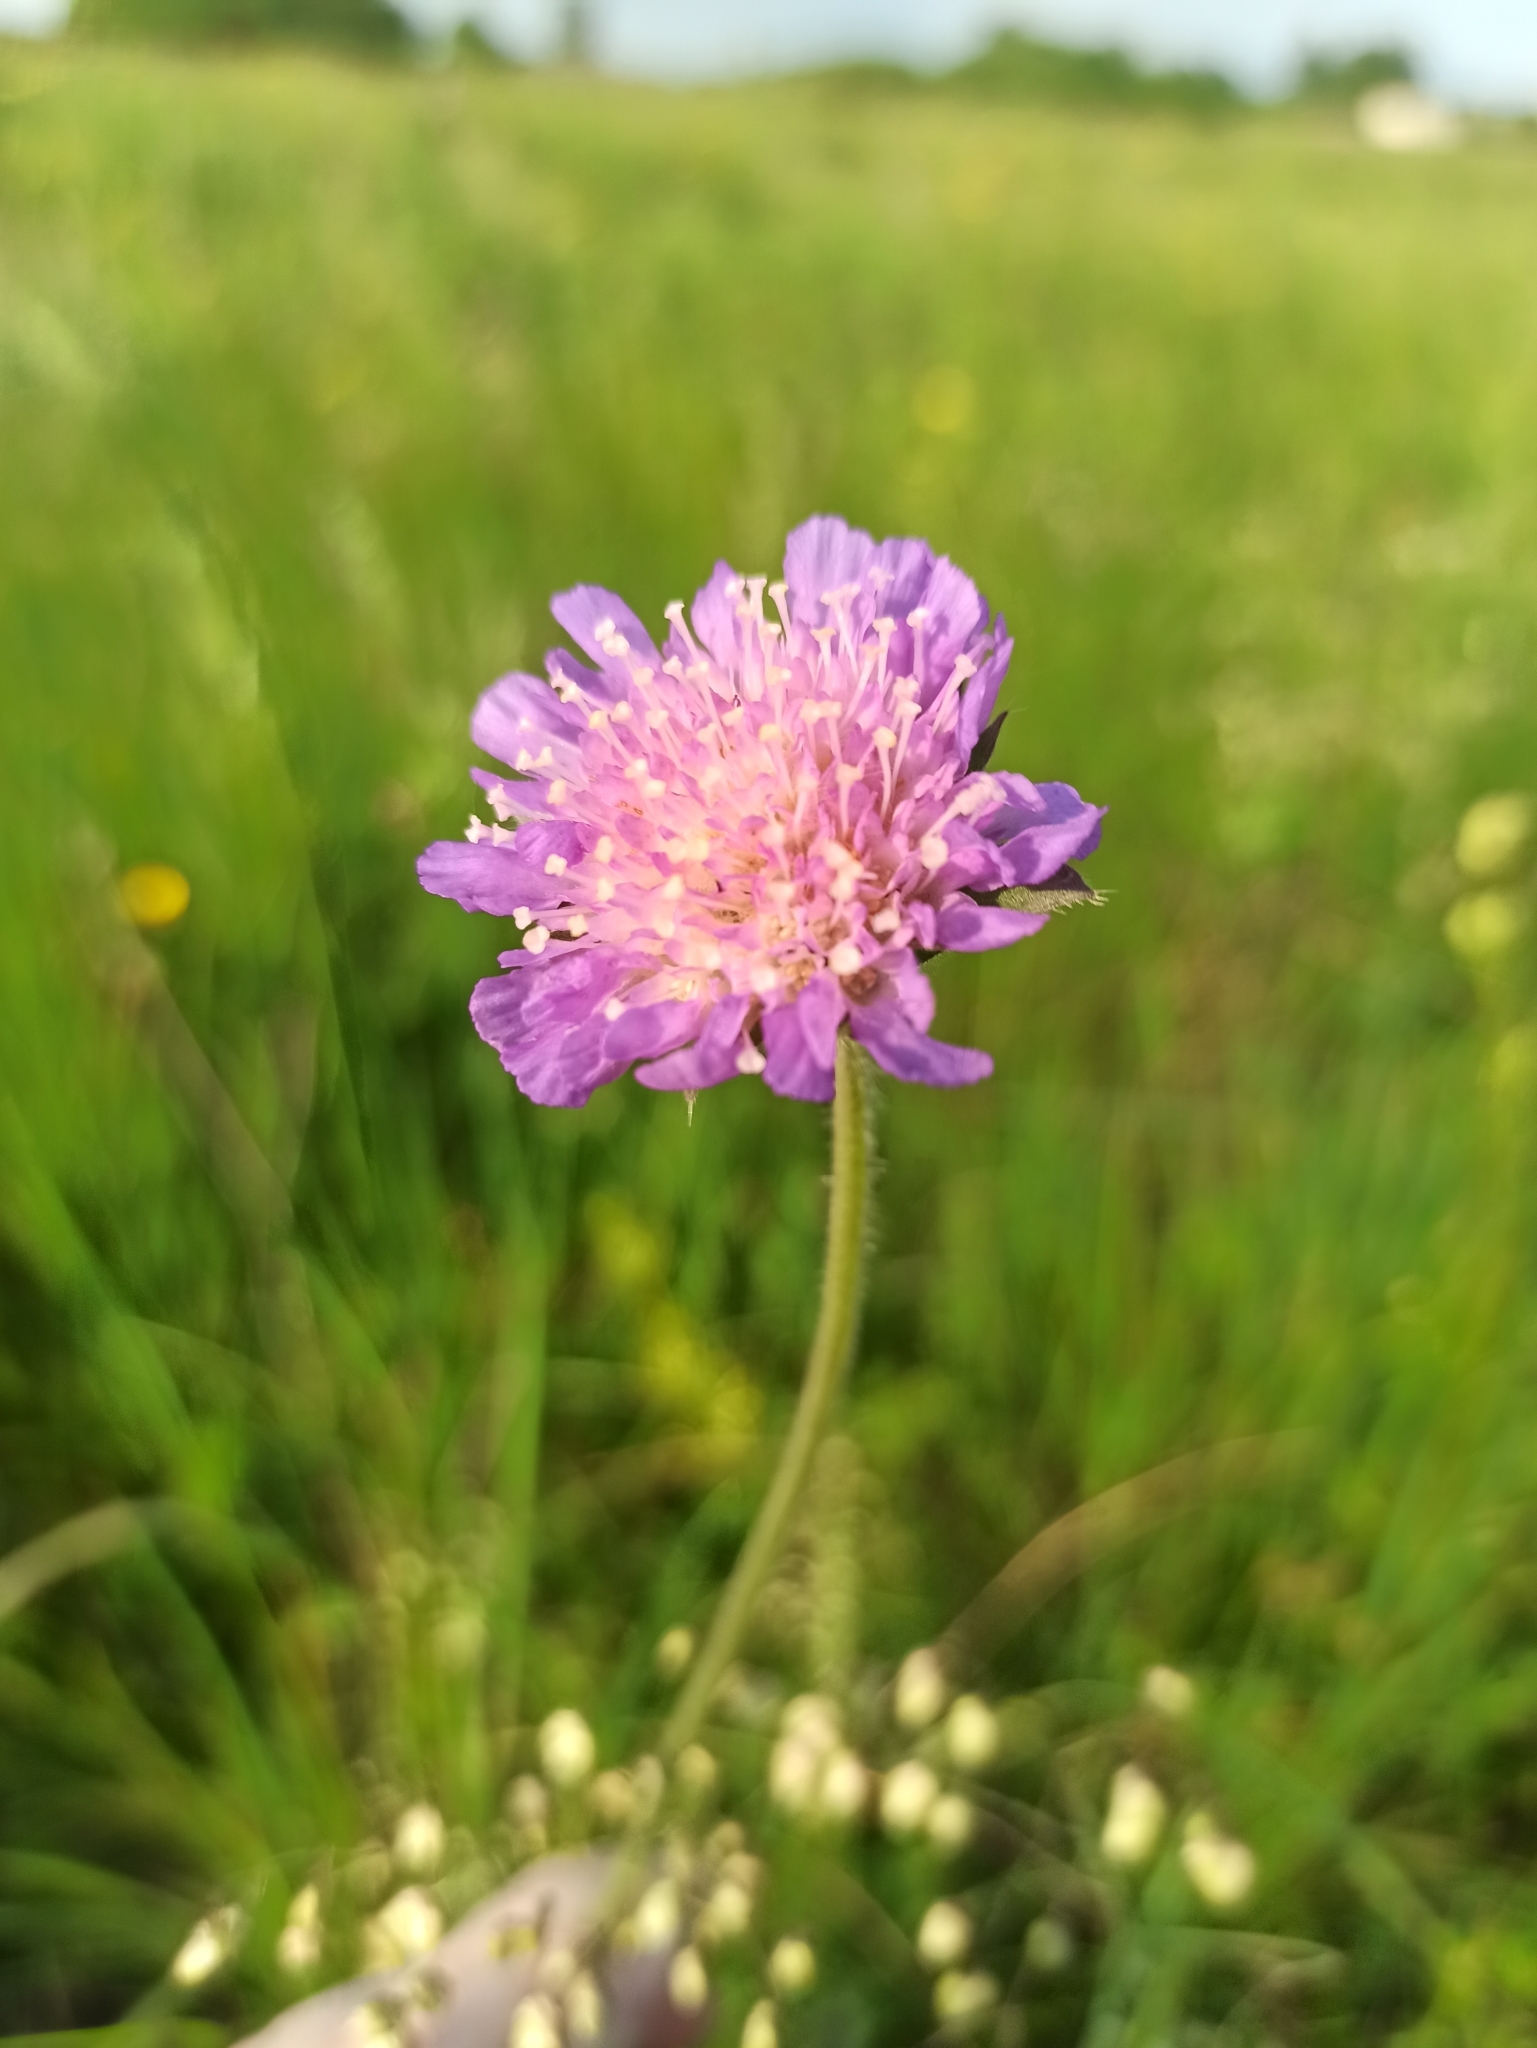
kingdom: Plantae
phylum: Tracheophyta
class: Magnoliopsida
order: Dipsacales
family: Caprifoliaceae
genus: Knautia
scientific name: Knautia arvensis
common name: Field scabiosa
